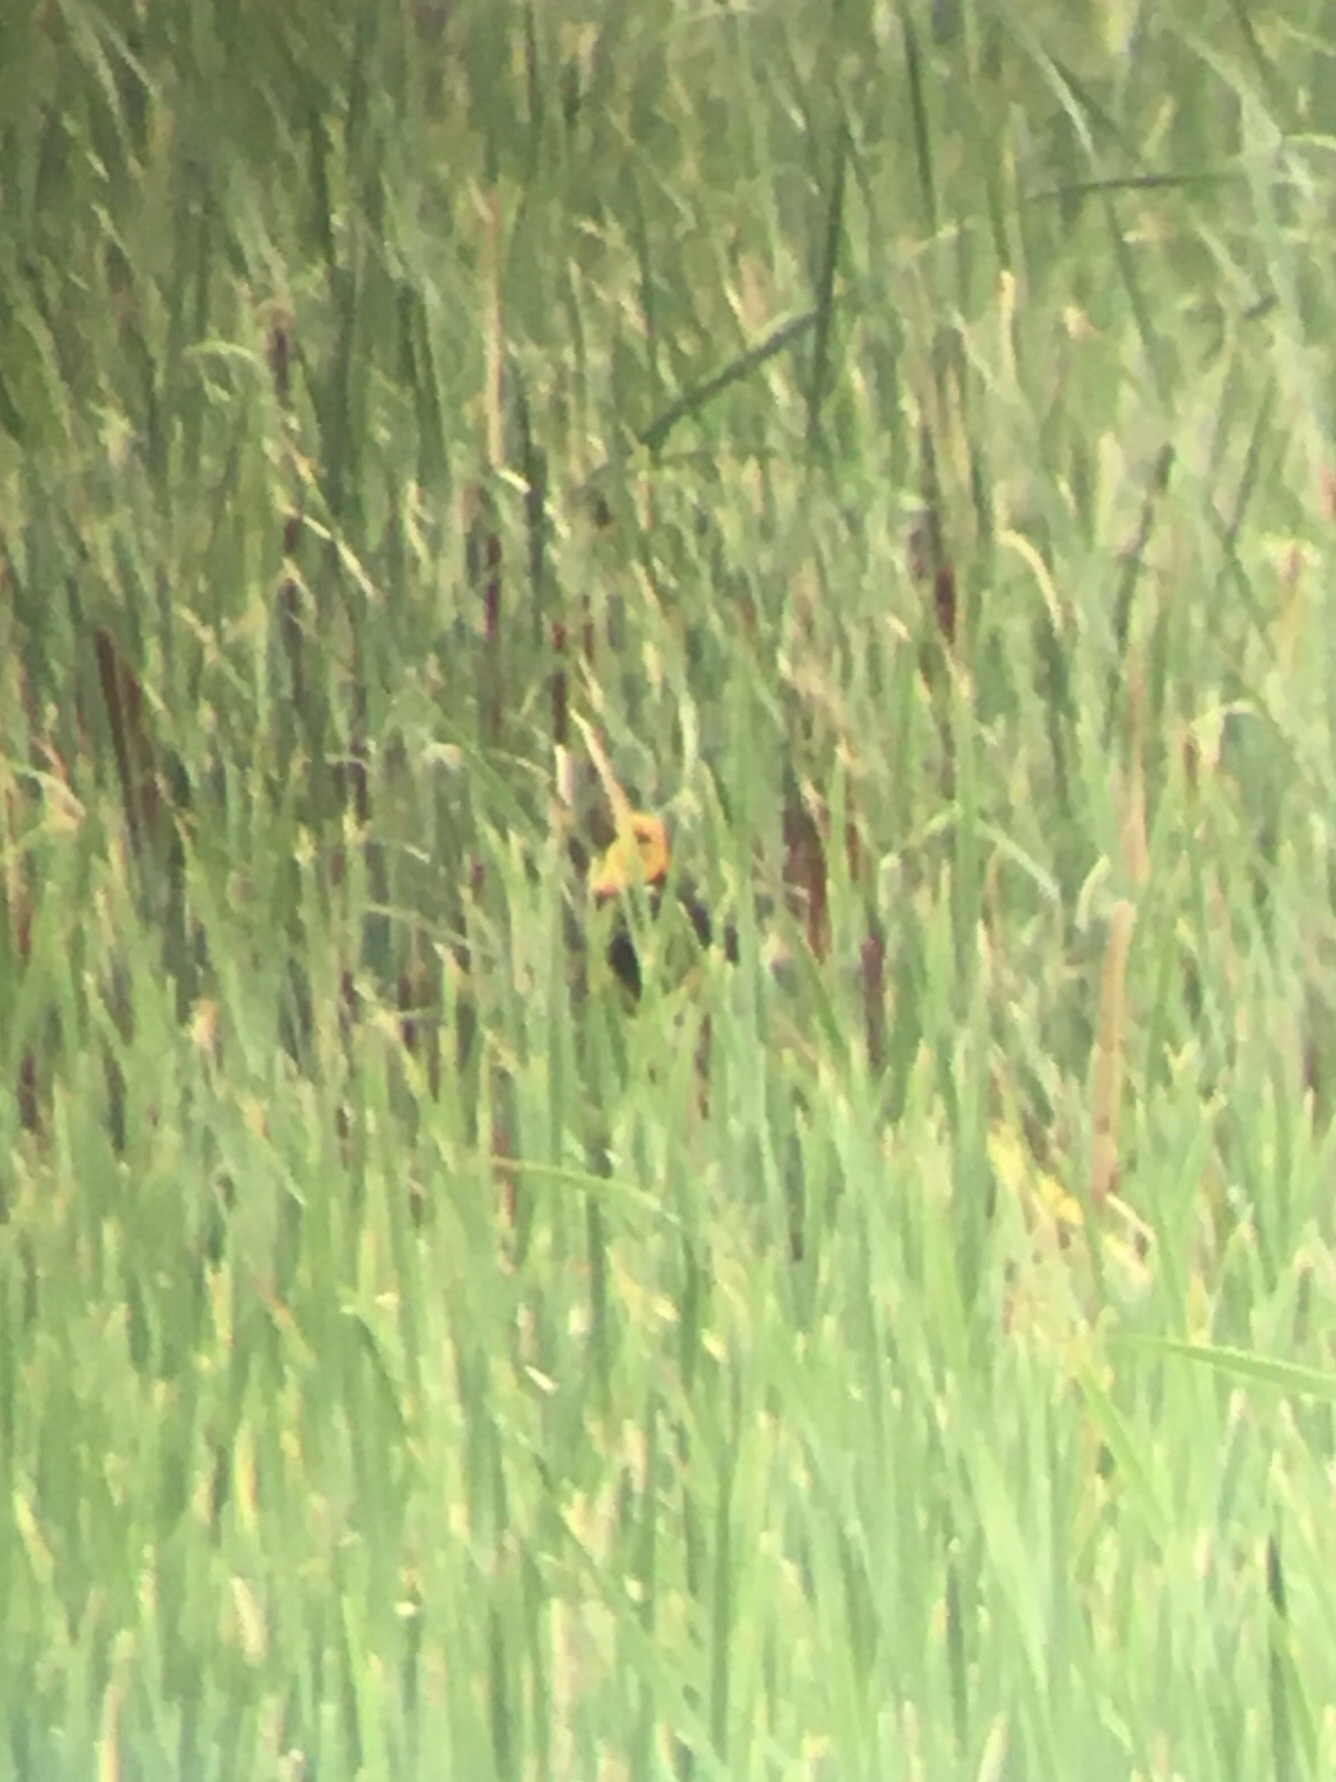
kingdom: Animalia
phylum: Chordata
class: Aves
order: Passeriformes
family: Icteridae
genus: Xanthocephalus
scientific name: Xanthocephalus xanthocephalus
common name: Yellow-headed blackbird
